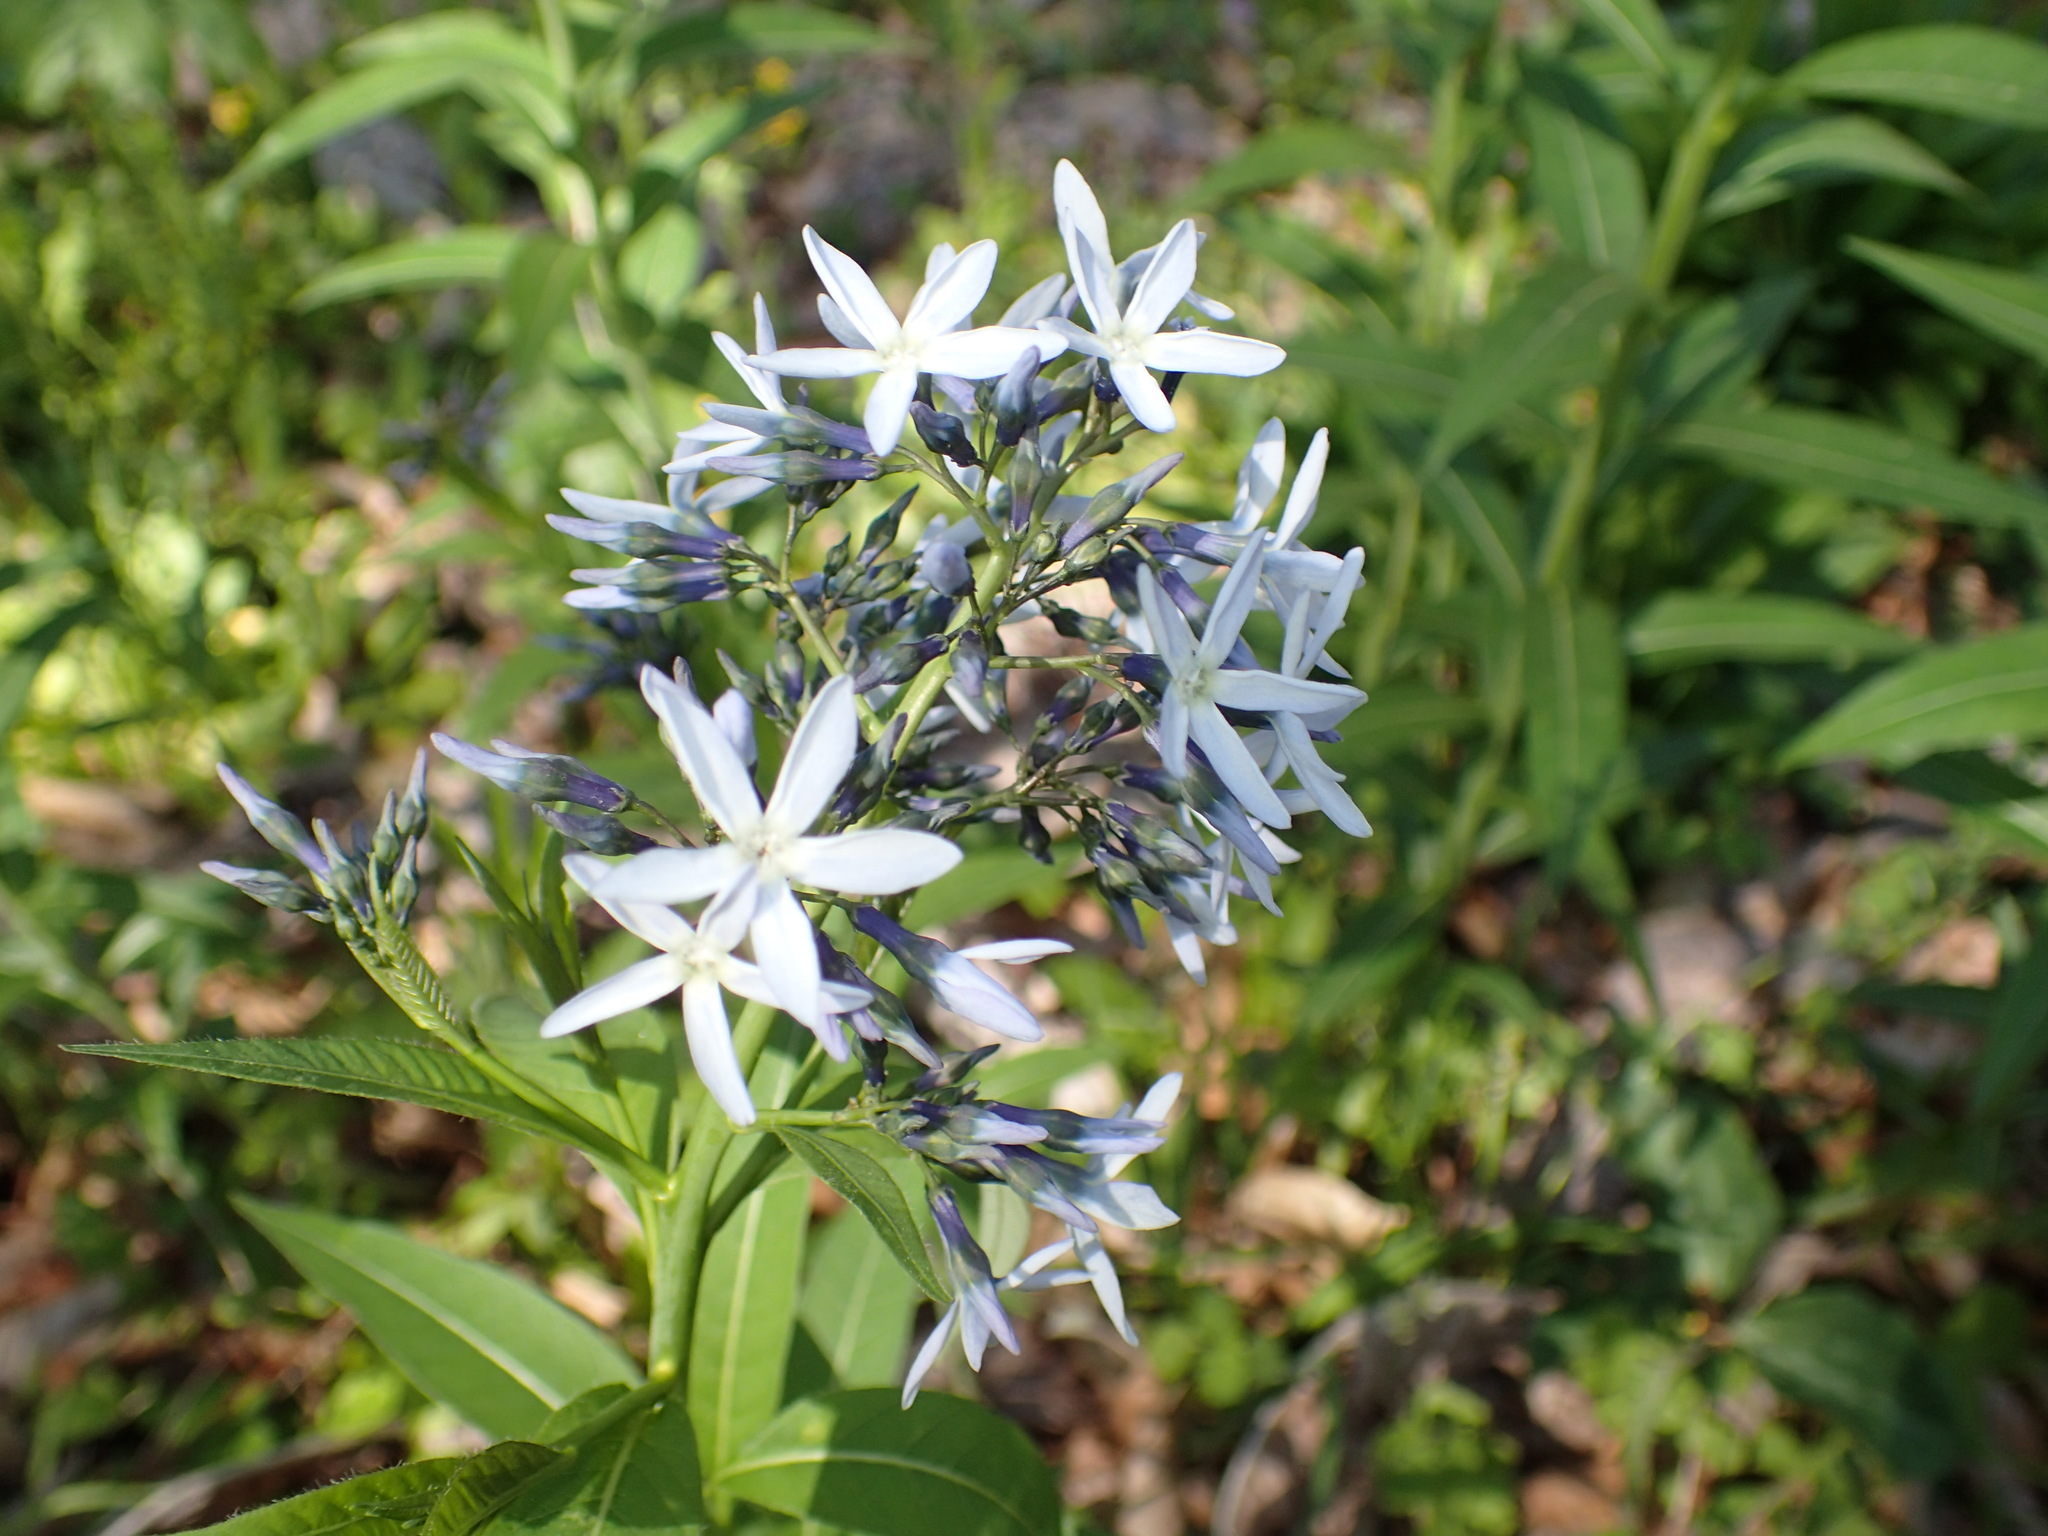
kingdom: Plantae
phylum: Tracheophyta
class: Magnoliopsida
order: Gentianales
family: Apocynaceae
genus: Amsonia
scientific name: Amsonia tabernaemontana
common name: Texas-star
